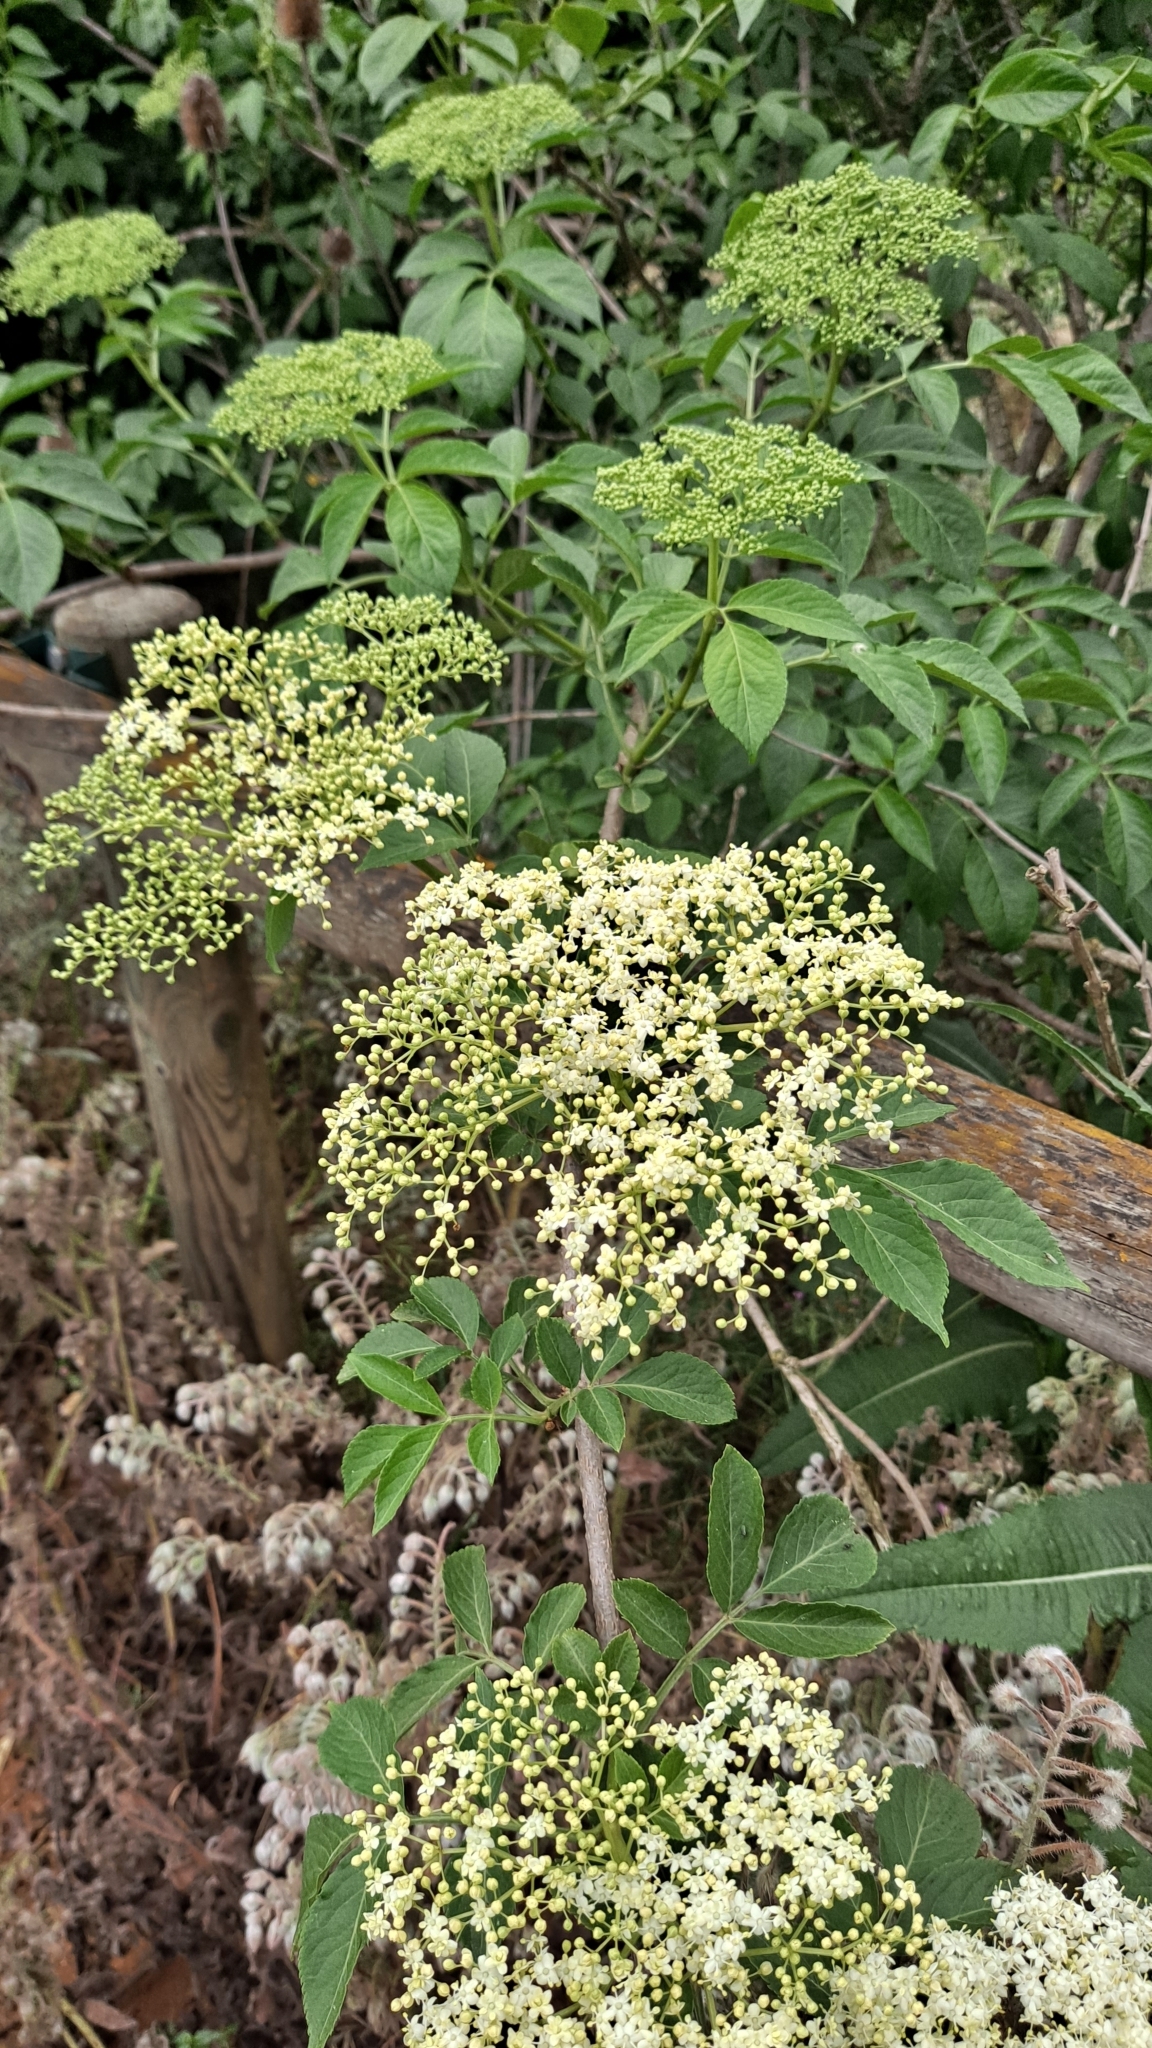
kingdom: Plantae
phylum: Tracheophyta
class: Magnoliopsida
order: Dipsacales
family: Viburnaceae
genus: Sambucus
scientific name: Sambucus nigra
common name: Elder
